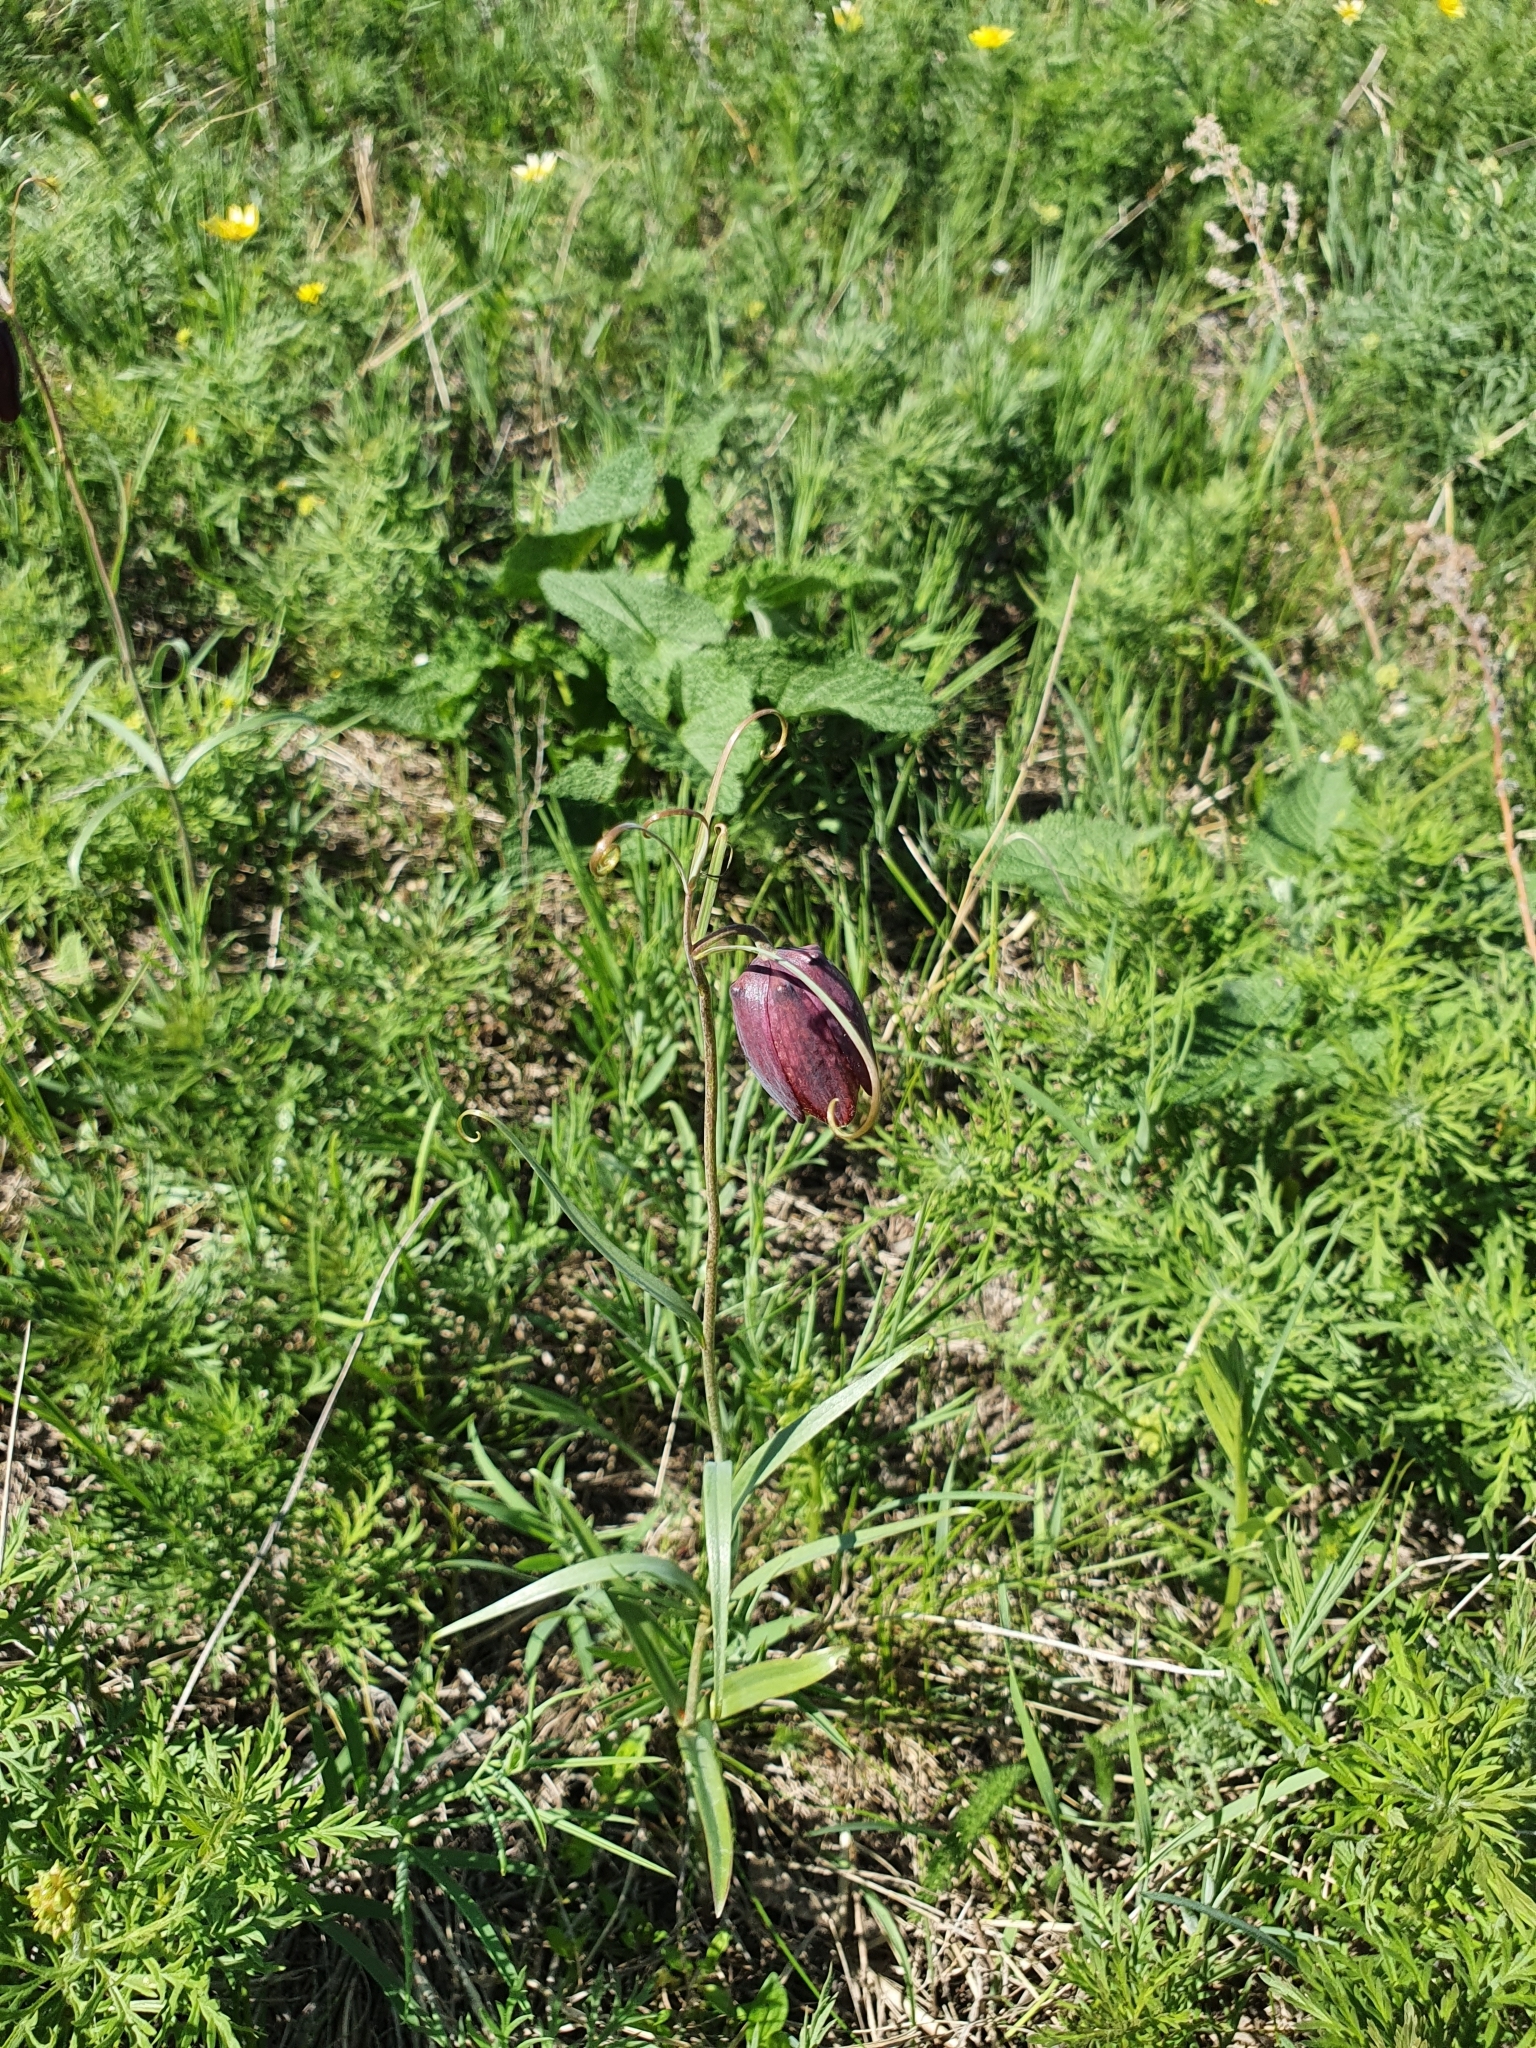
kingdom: Plantae
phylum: Tracheophyta
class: Liliopsida
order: Liliales
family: Liliaceae
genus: Fritillaria
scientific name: Fritillaria ruthenica
